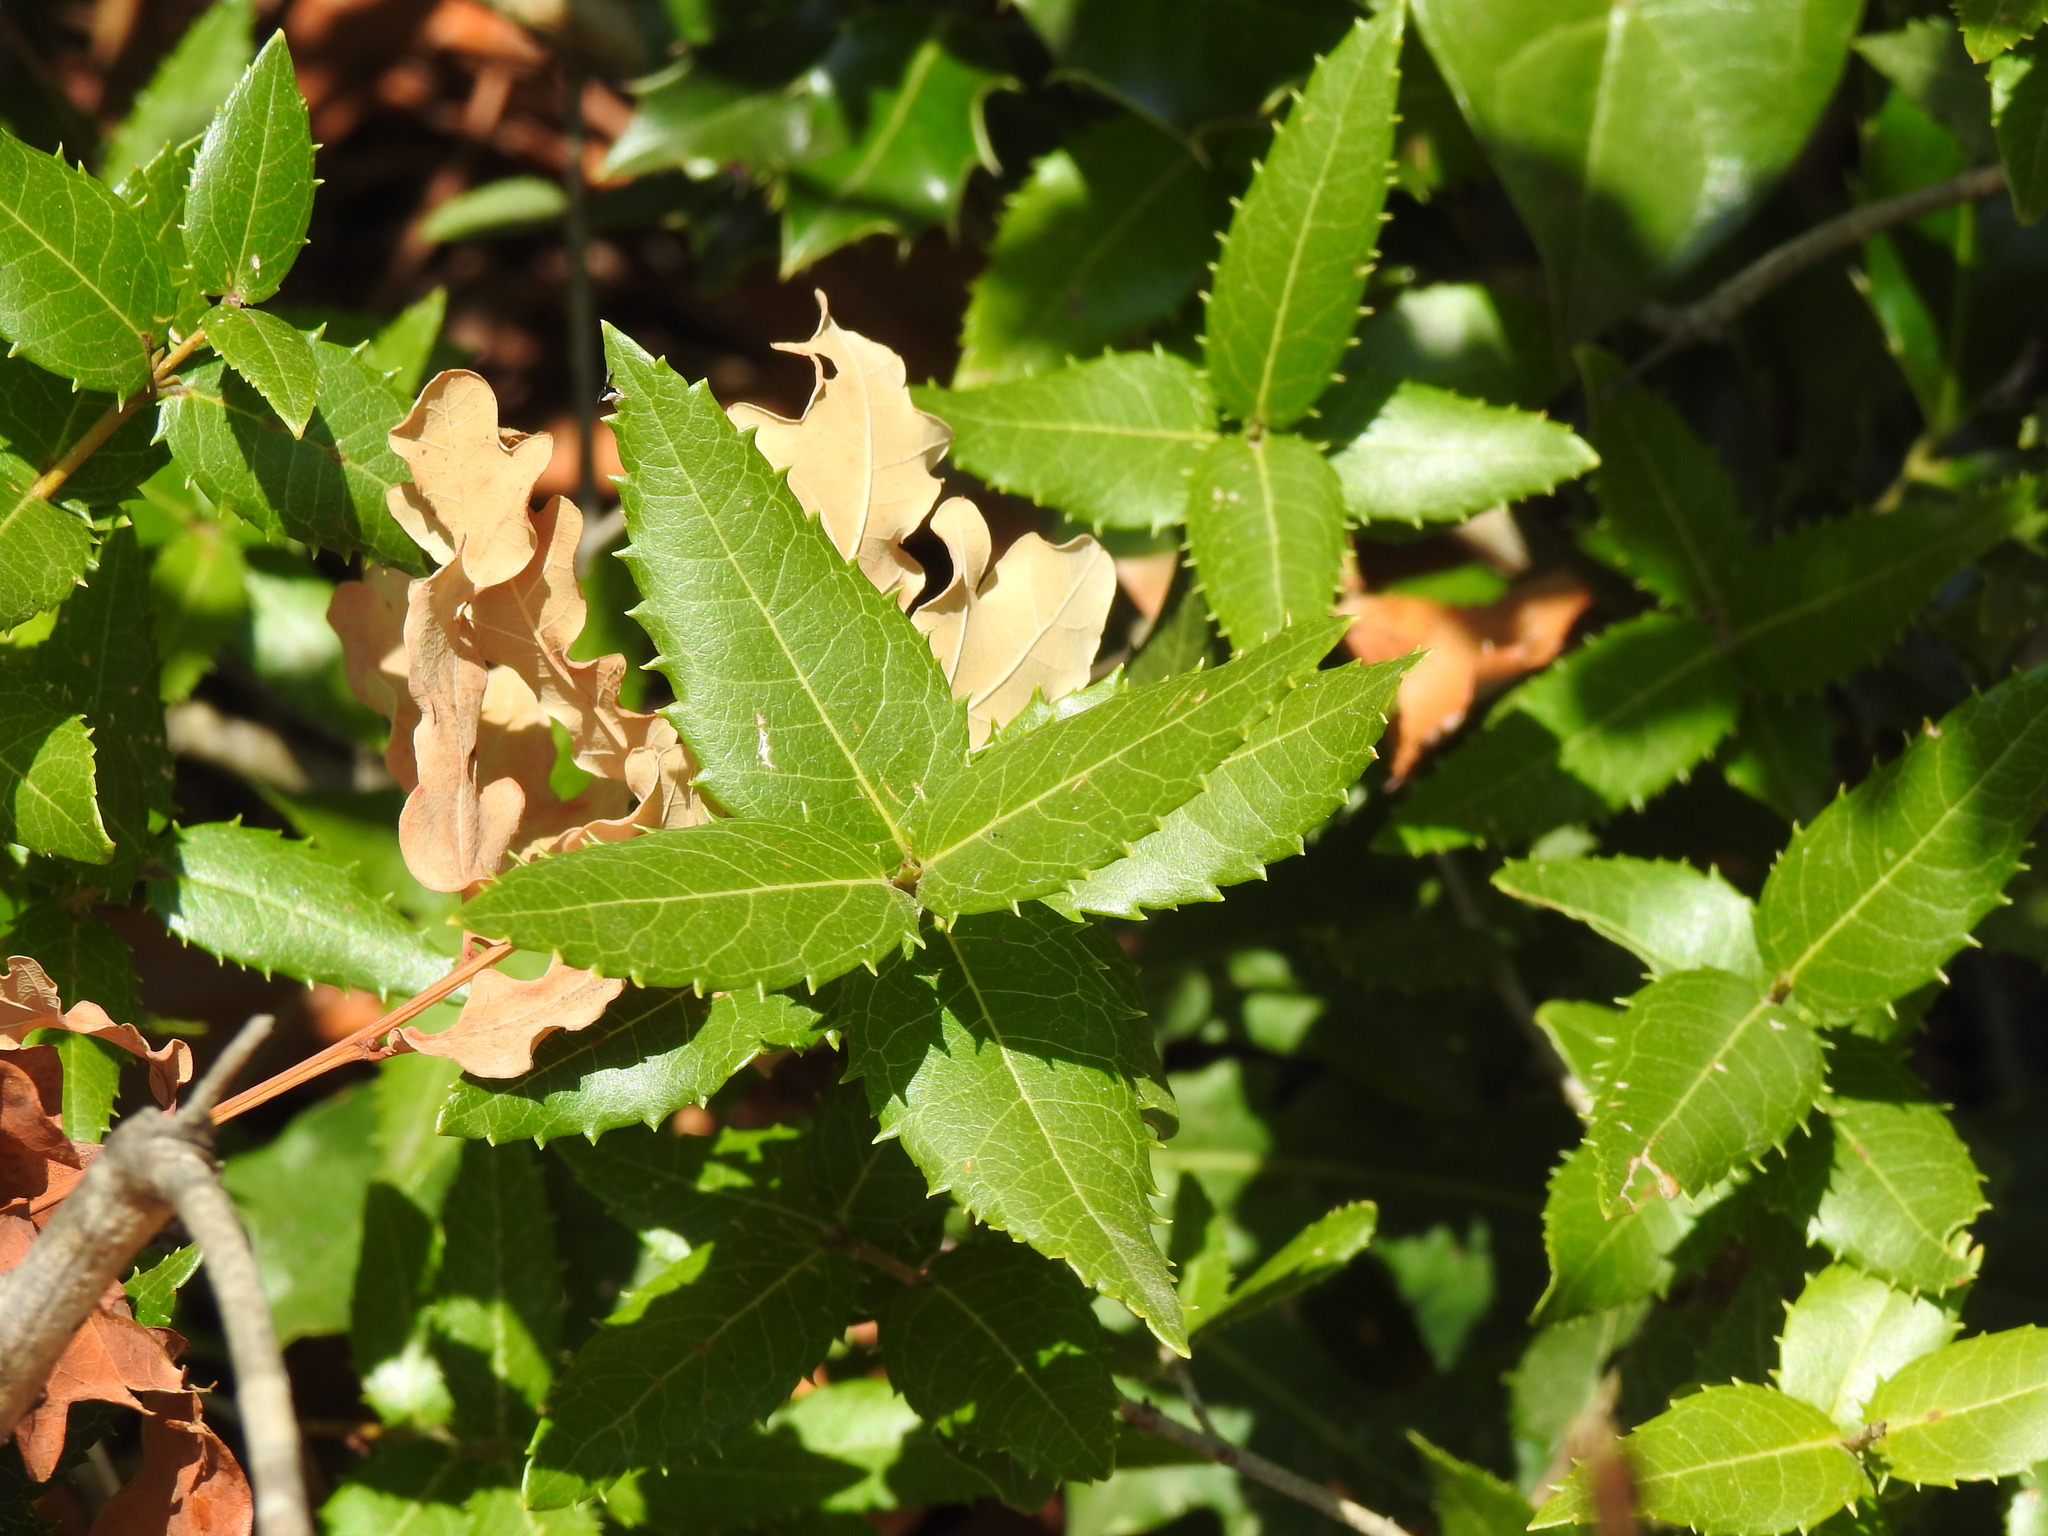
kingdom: Plantae
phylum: Tracheophyta
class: Magnoliopsida
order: Lamiales
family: Oleaceae
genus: Phillyrea
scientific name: Phillyrea latifolia
